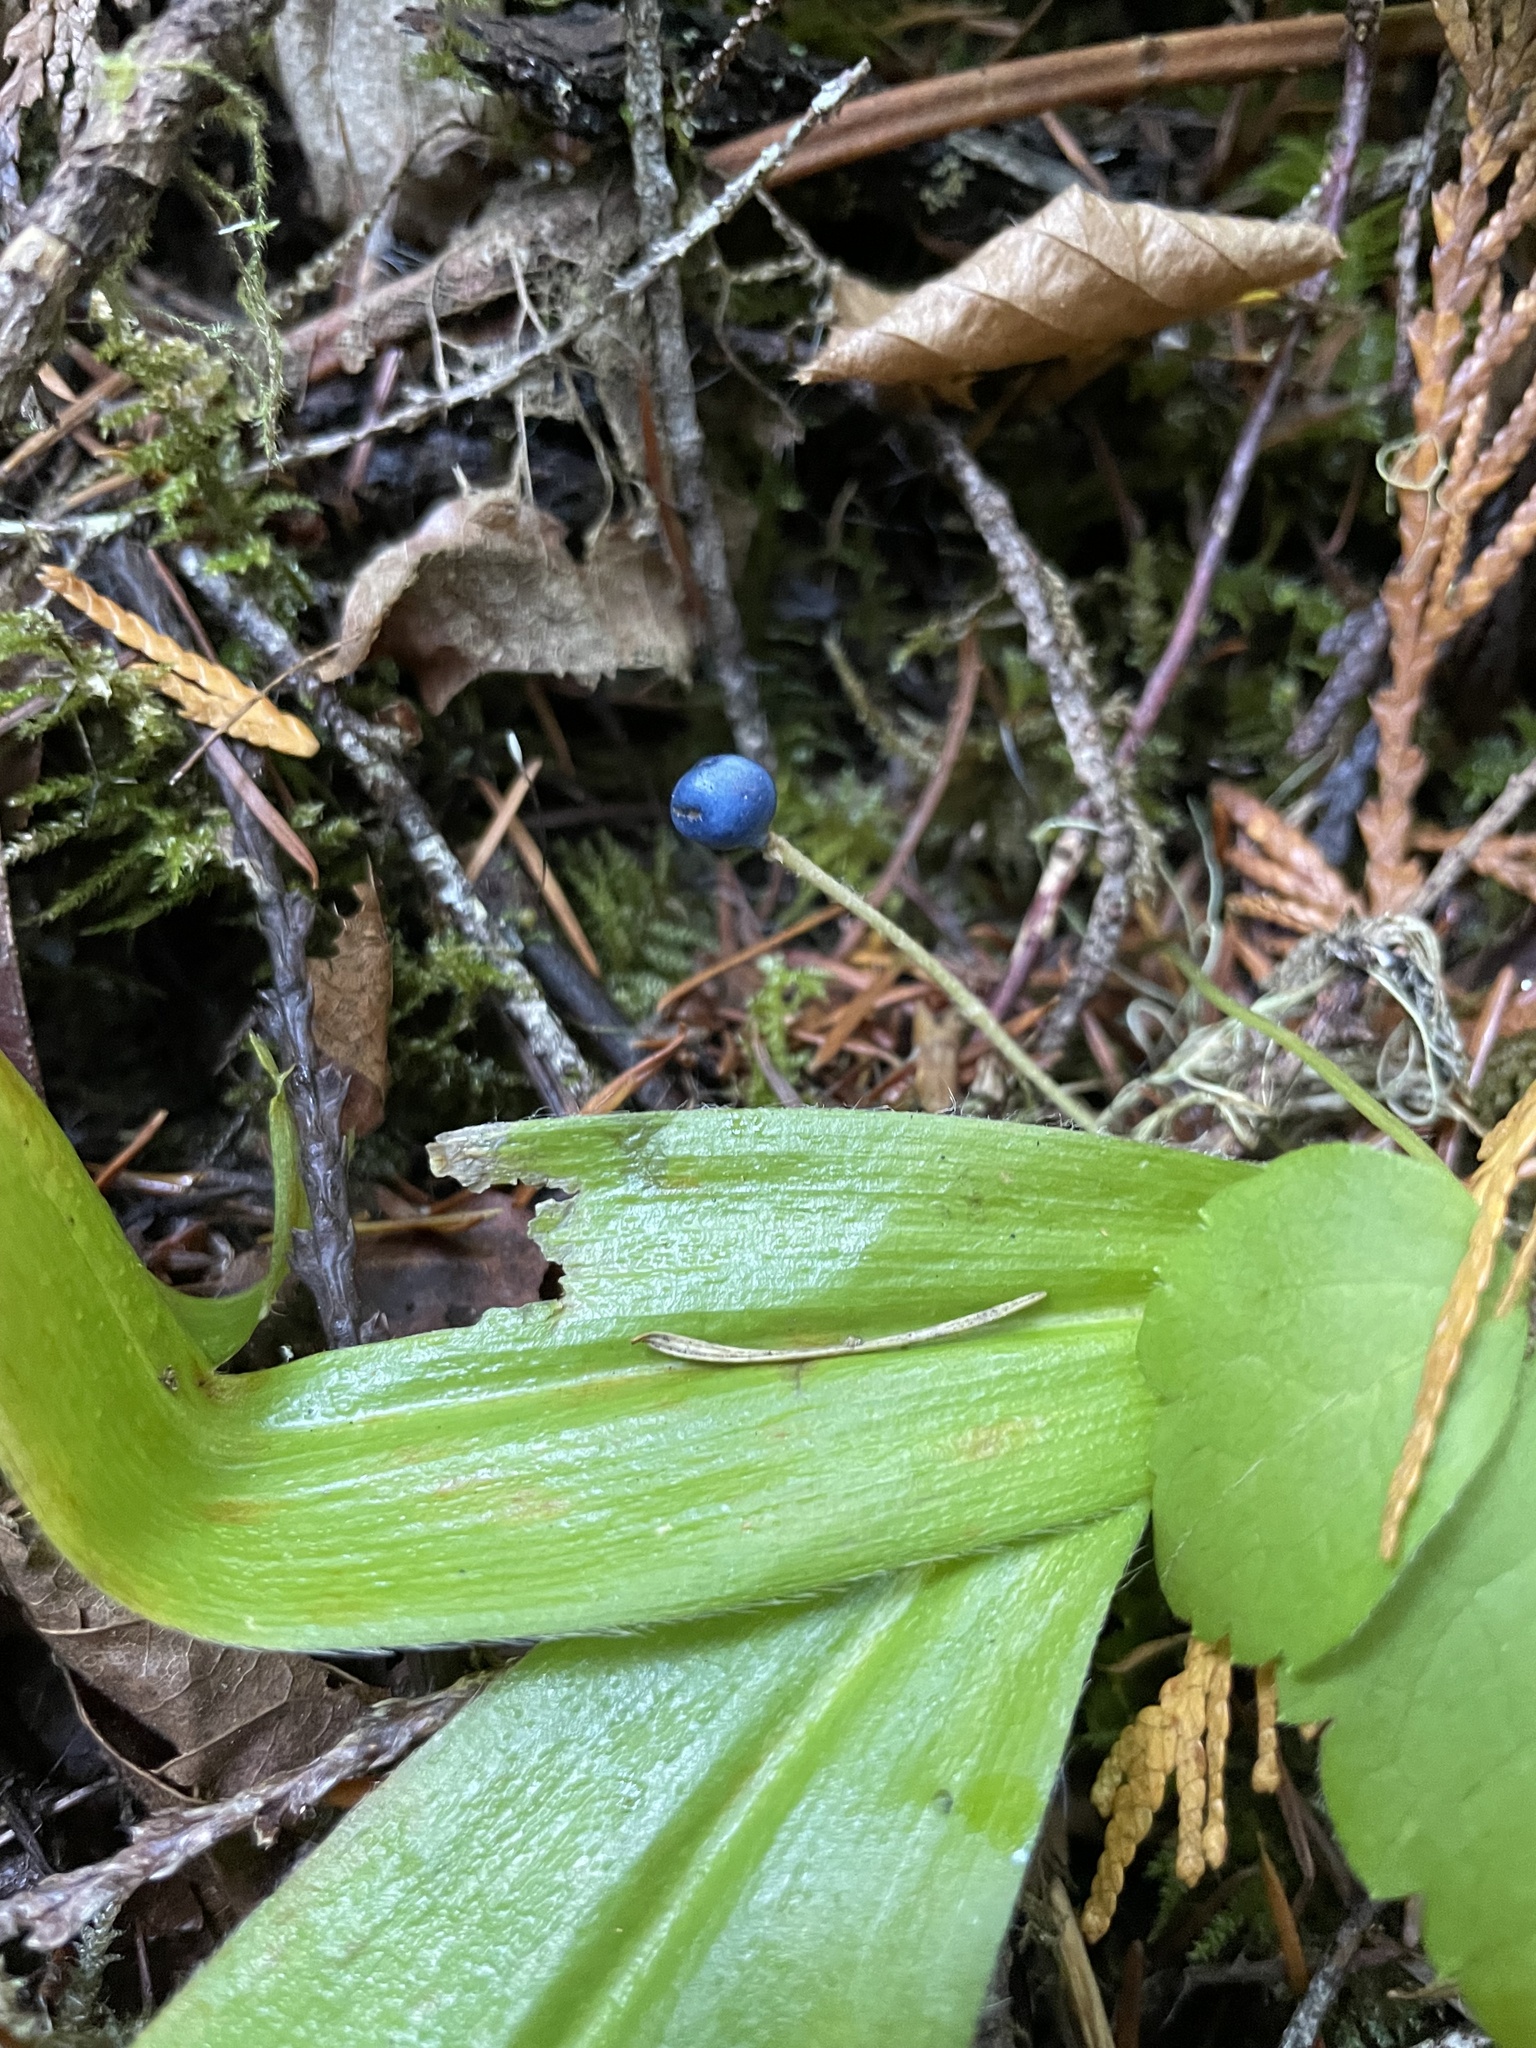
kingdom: Plantae
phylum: Tracheophyta
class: Liliopsida
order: Liliales
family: Liliaceae
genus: Clintonia
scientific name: Clintonia uniflora
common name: Queen's cup
